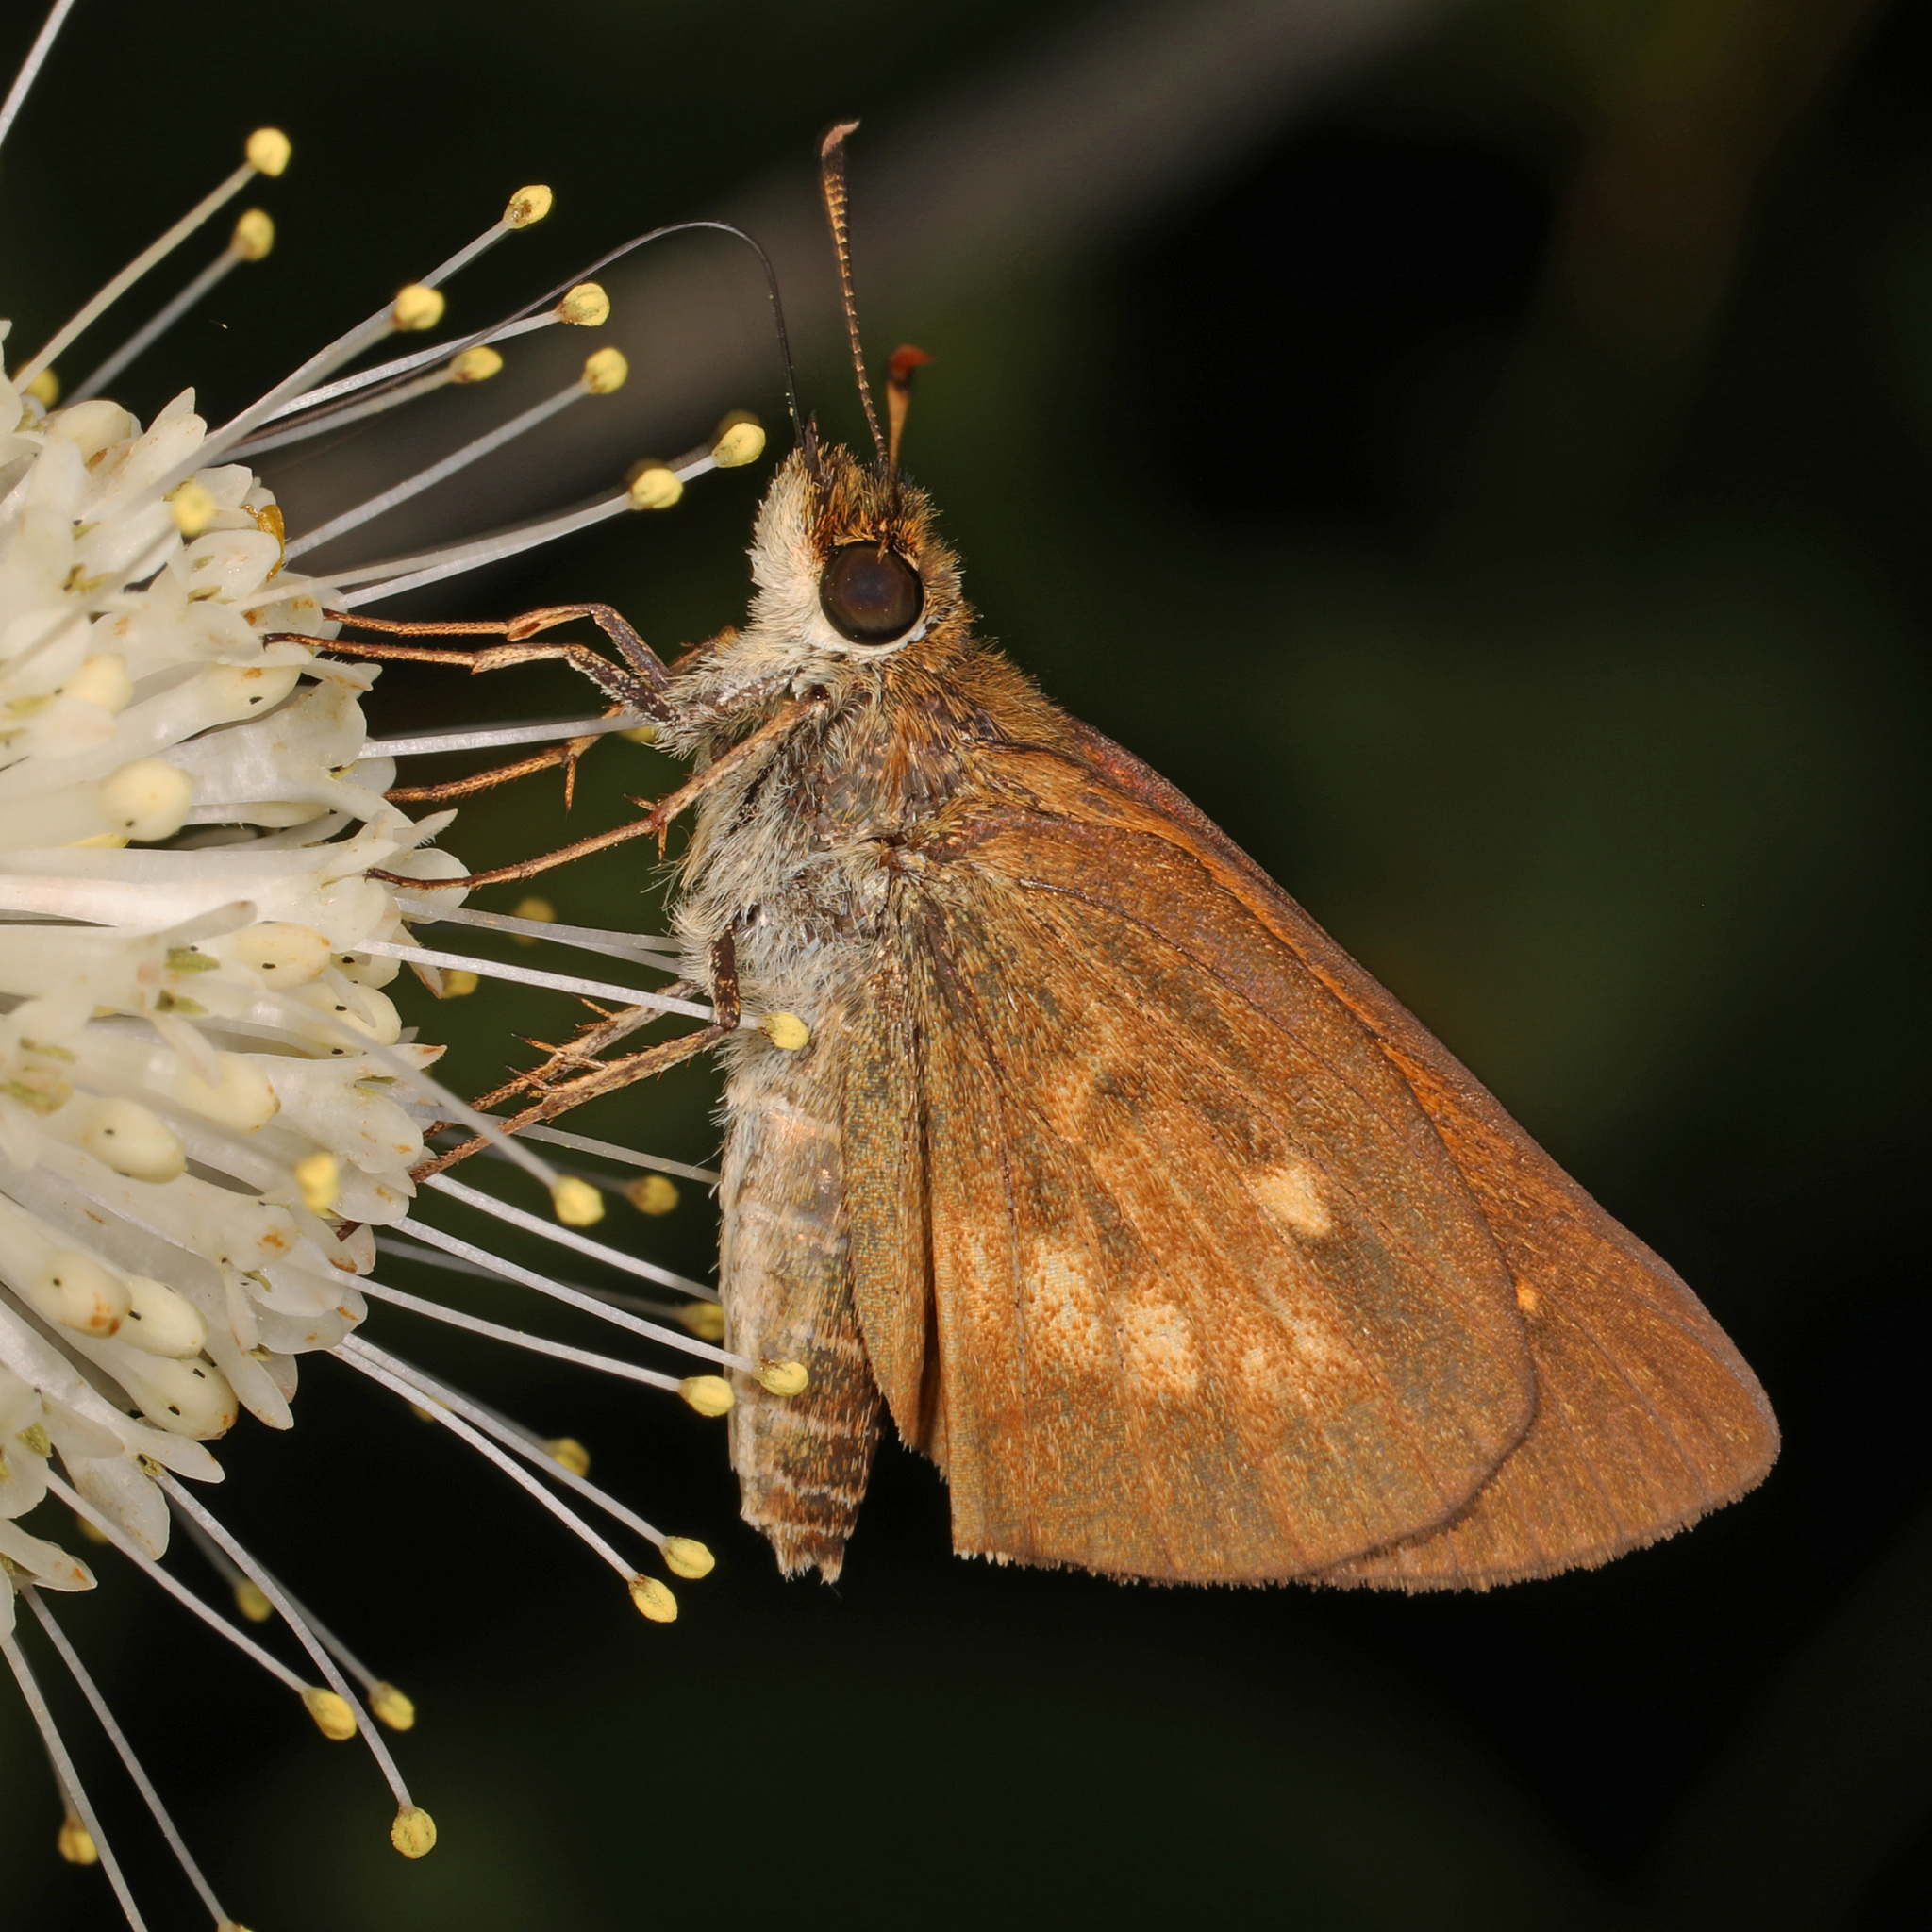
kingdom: Animalia
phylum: Arthropoda
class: Insecta
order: Lepidoptera
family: Hesperiidae
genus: Poanes
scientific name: Poanes viator
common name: Broad-winged skipper
